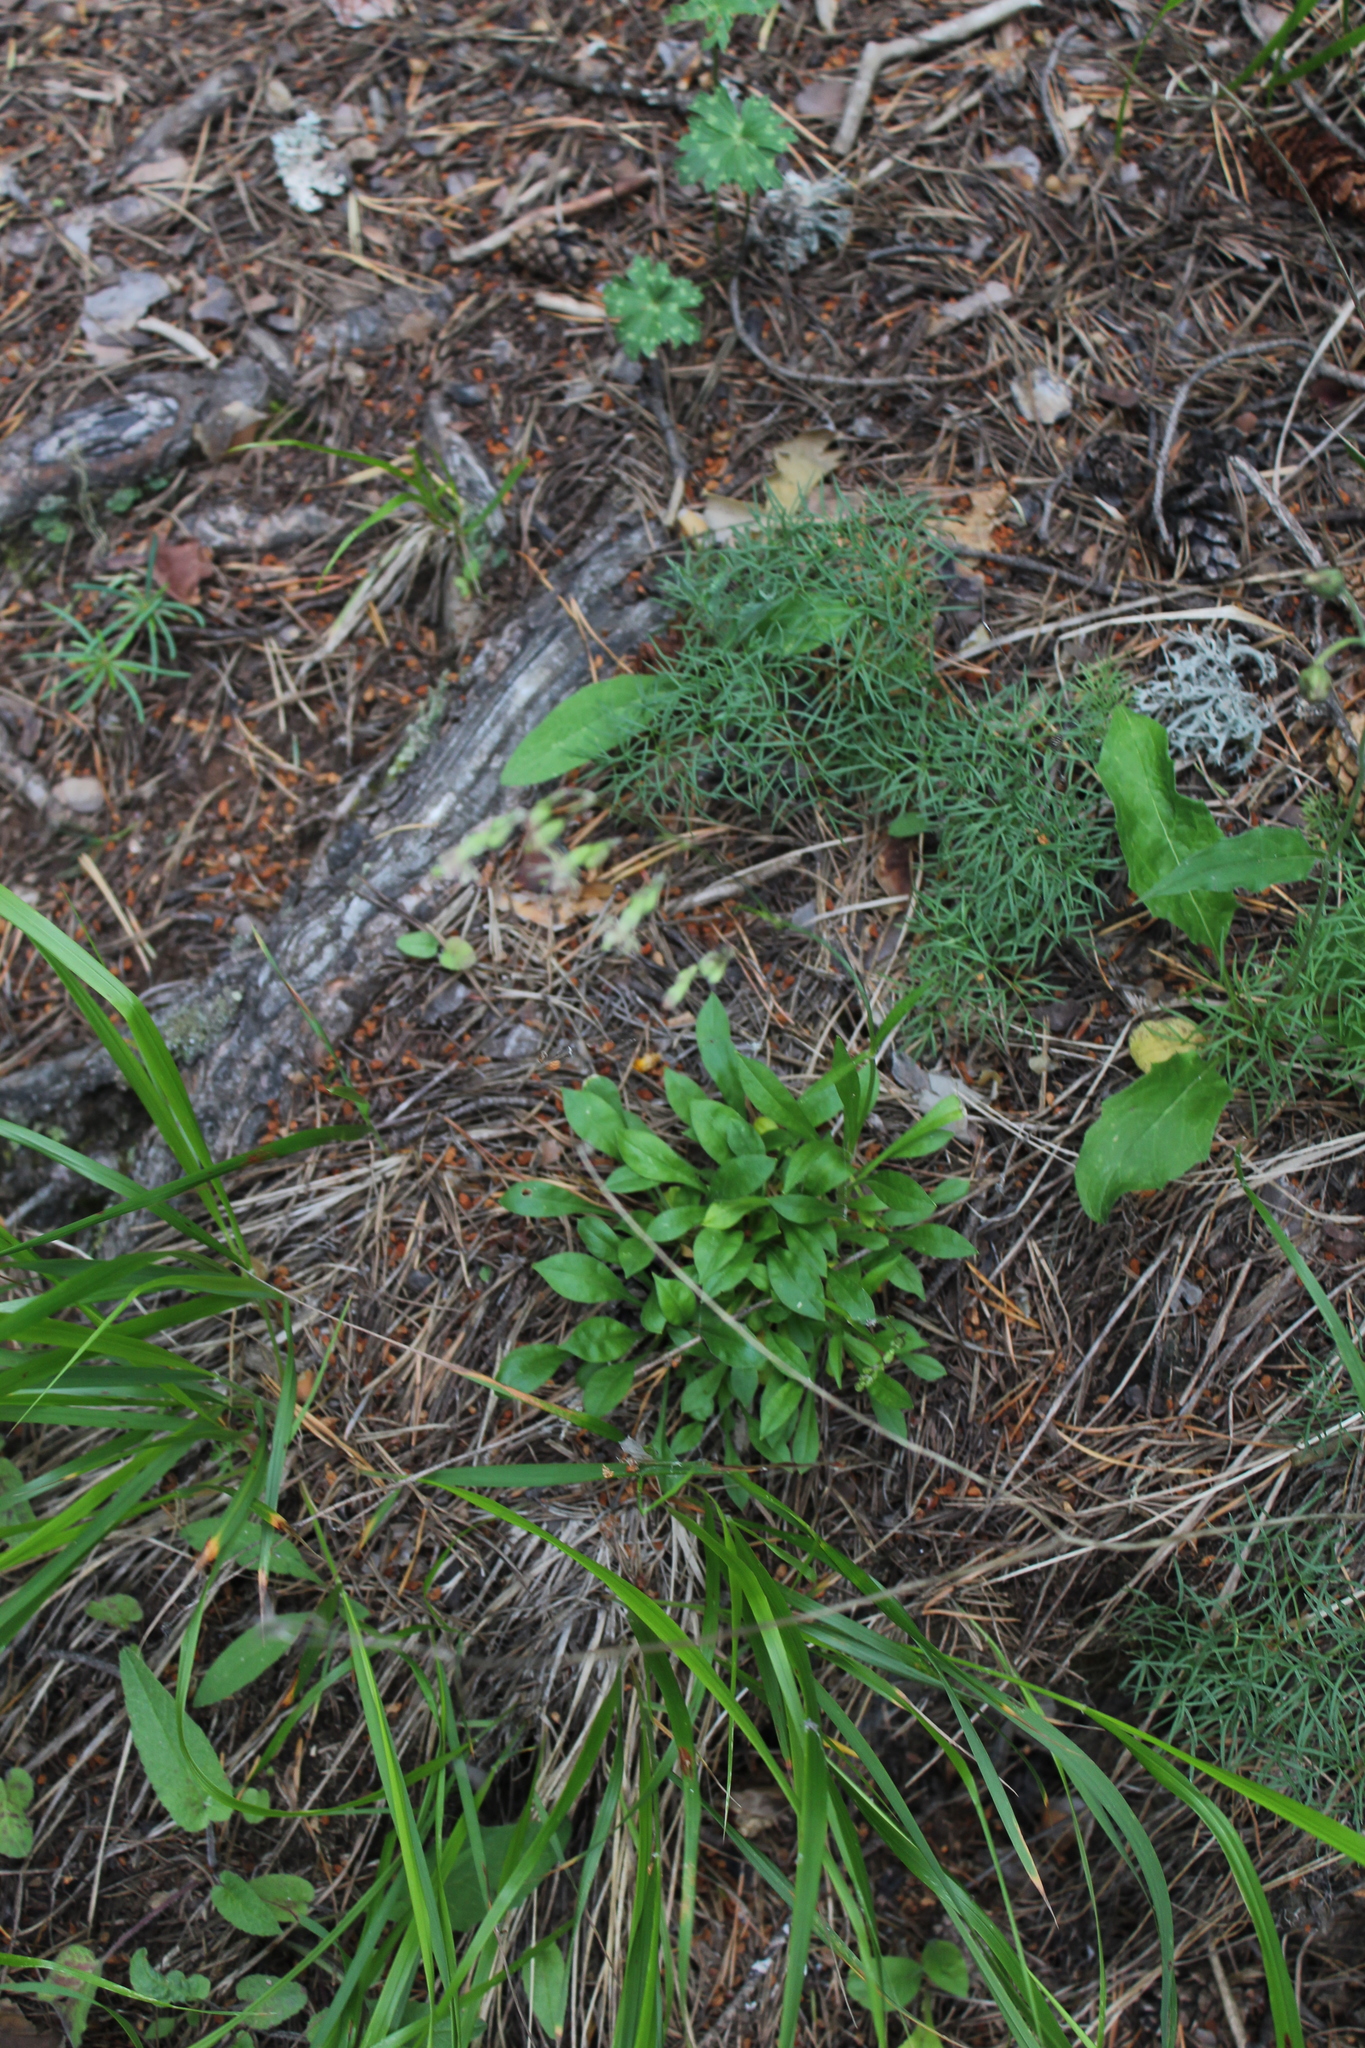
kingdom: Plantae
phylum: Tracheophyta
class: Magnoliopsida
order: Caryophyllales
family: Caryophyllaceae
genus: Silene
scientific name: Silene saxatilis
